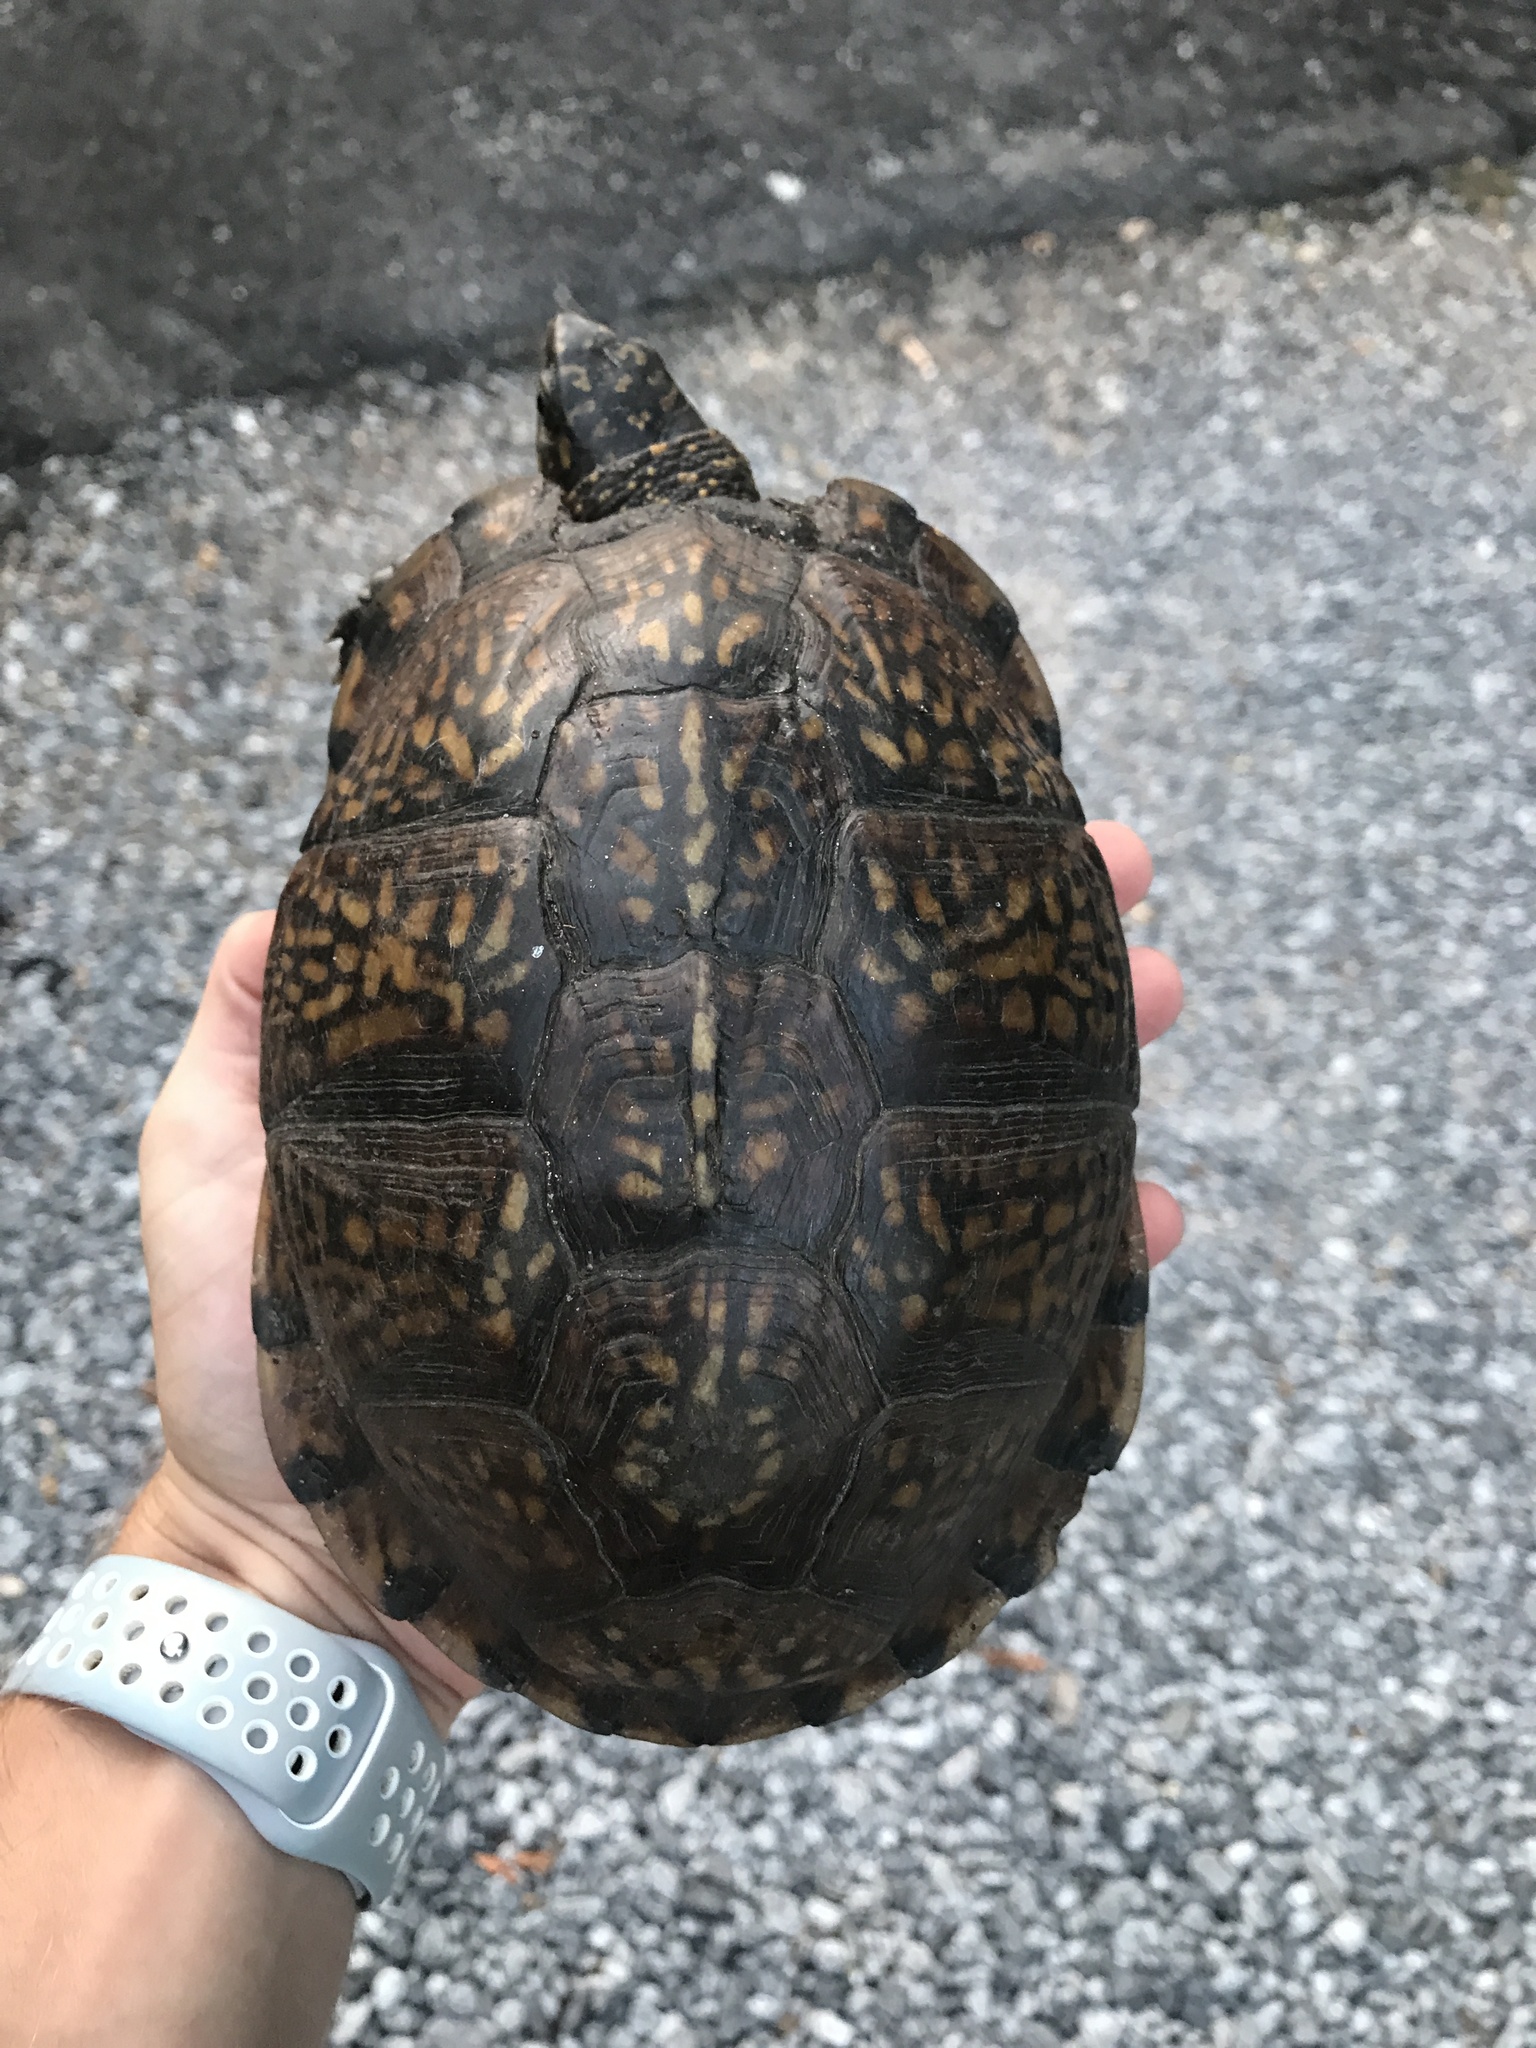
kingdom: Animalia
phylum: Chordata
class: Testudines
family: Emydidae
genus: Terrapene
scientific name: Terrapene carolina
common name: Common box turtle
